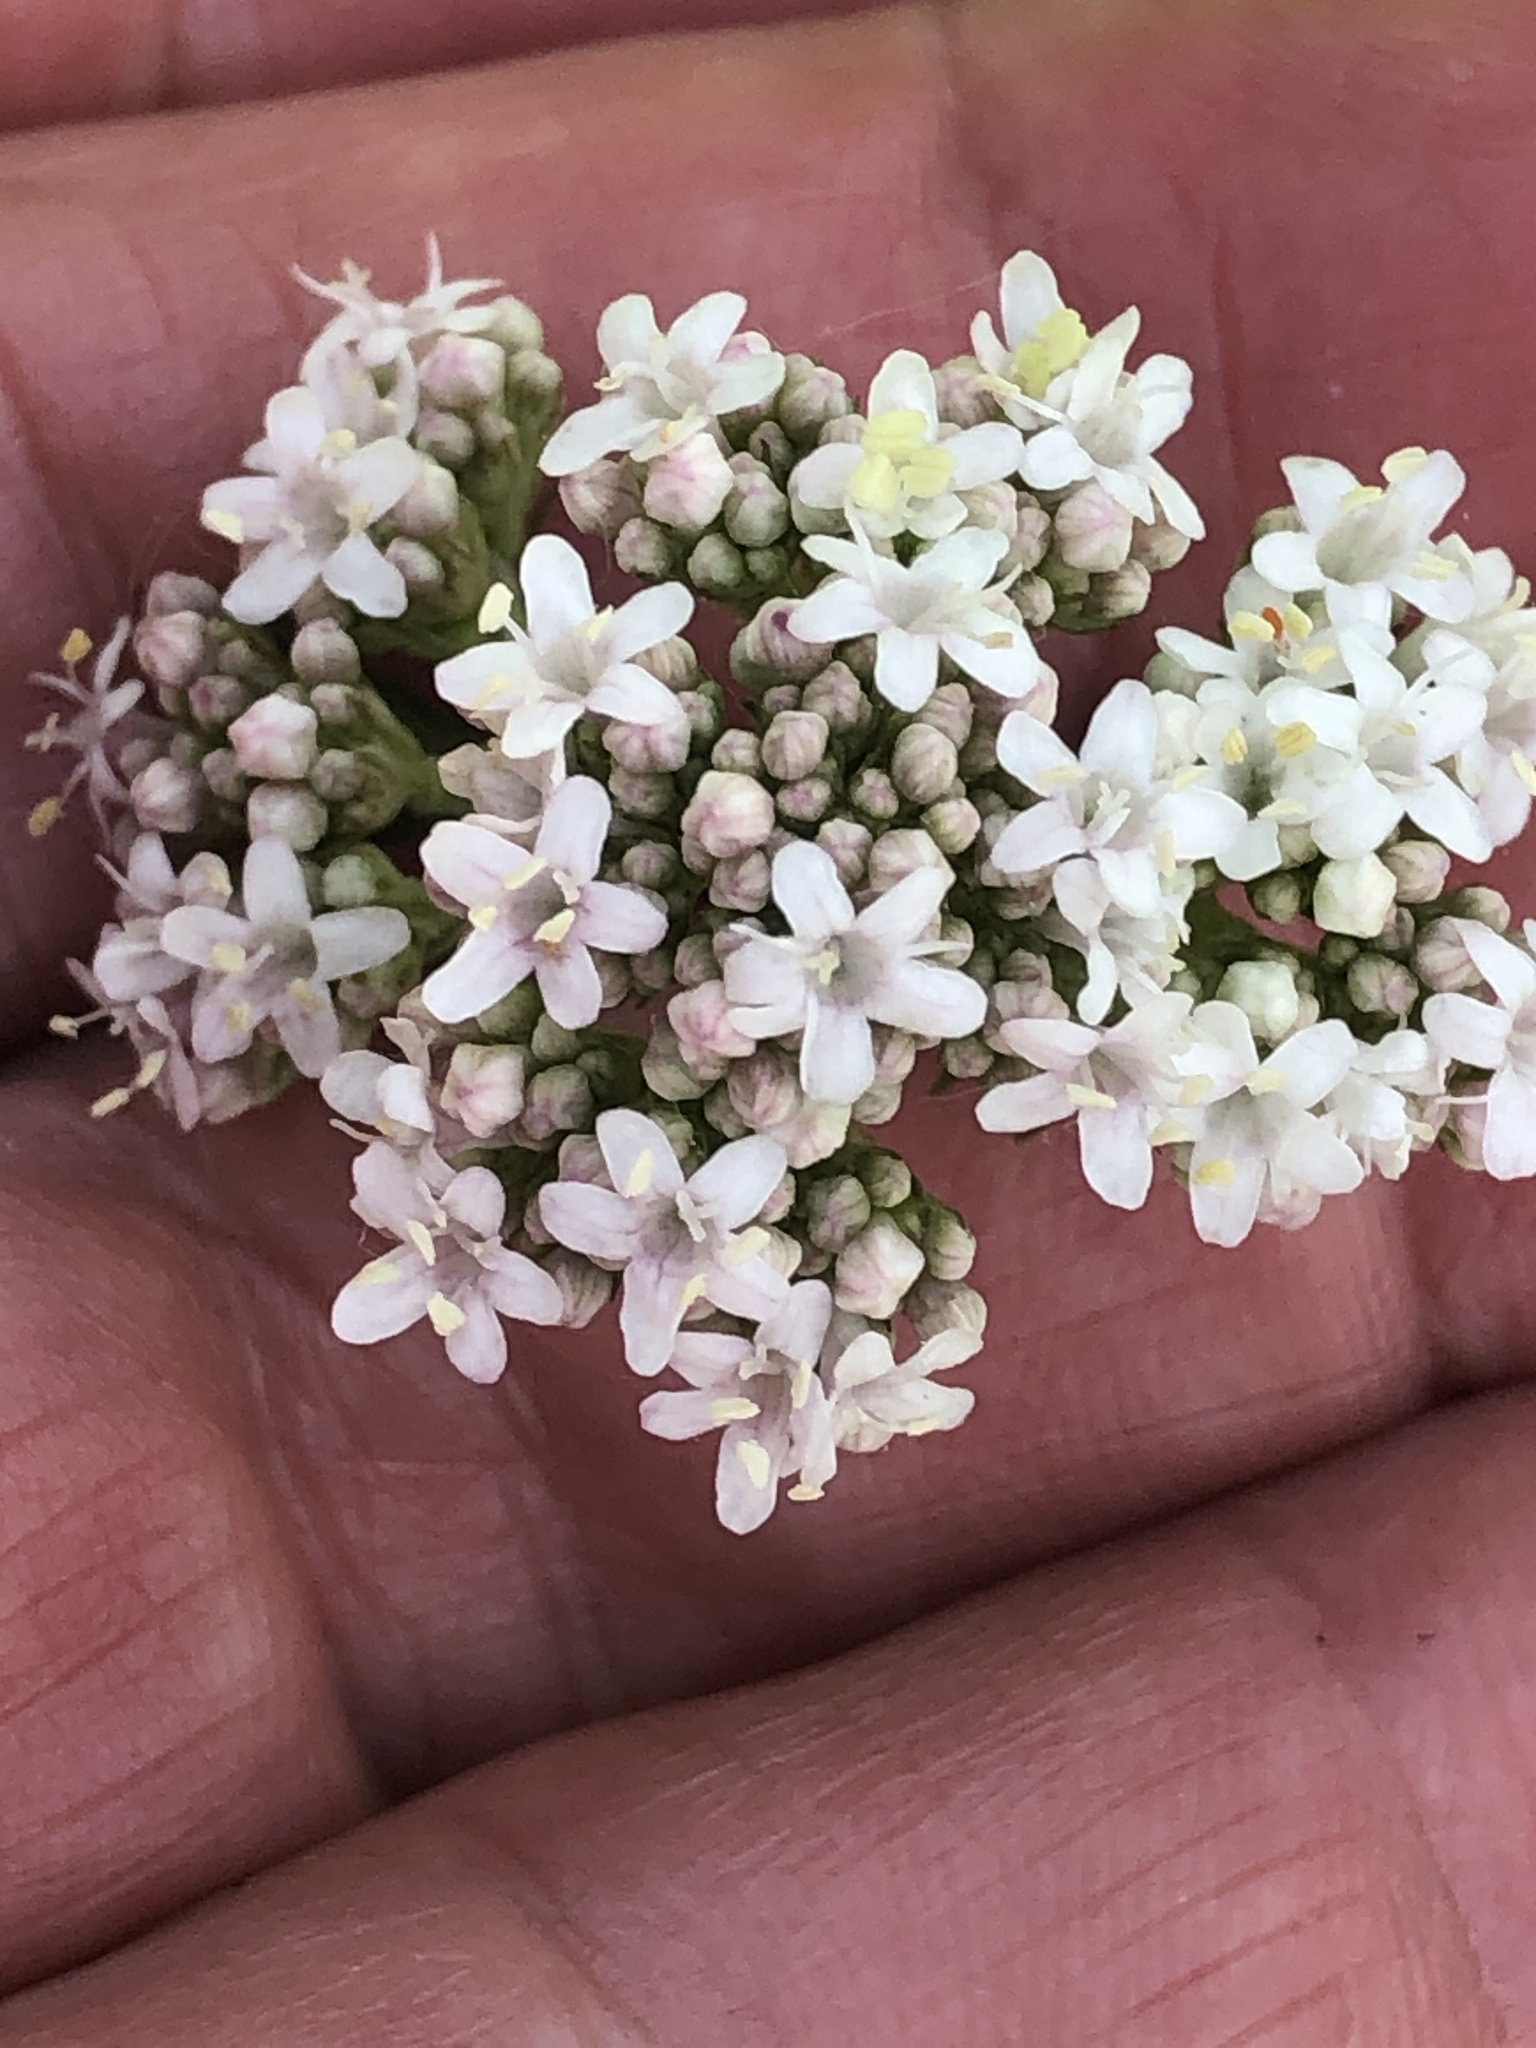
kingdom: Plantae
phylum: Tracheophyta
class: Magnoliopsida
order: Dipsacales
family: Caprifoliaceae
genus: Valeriana
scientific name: Valeriana officinalis
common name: Common valerian
